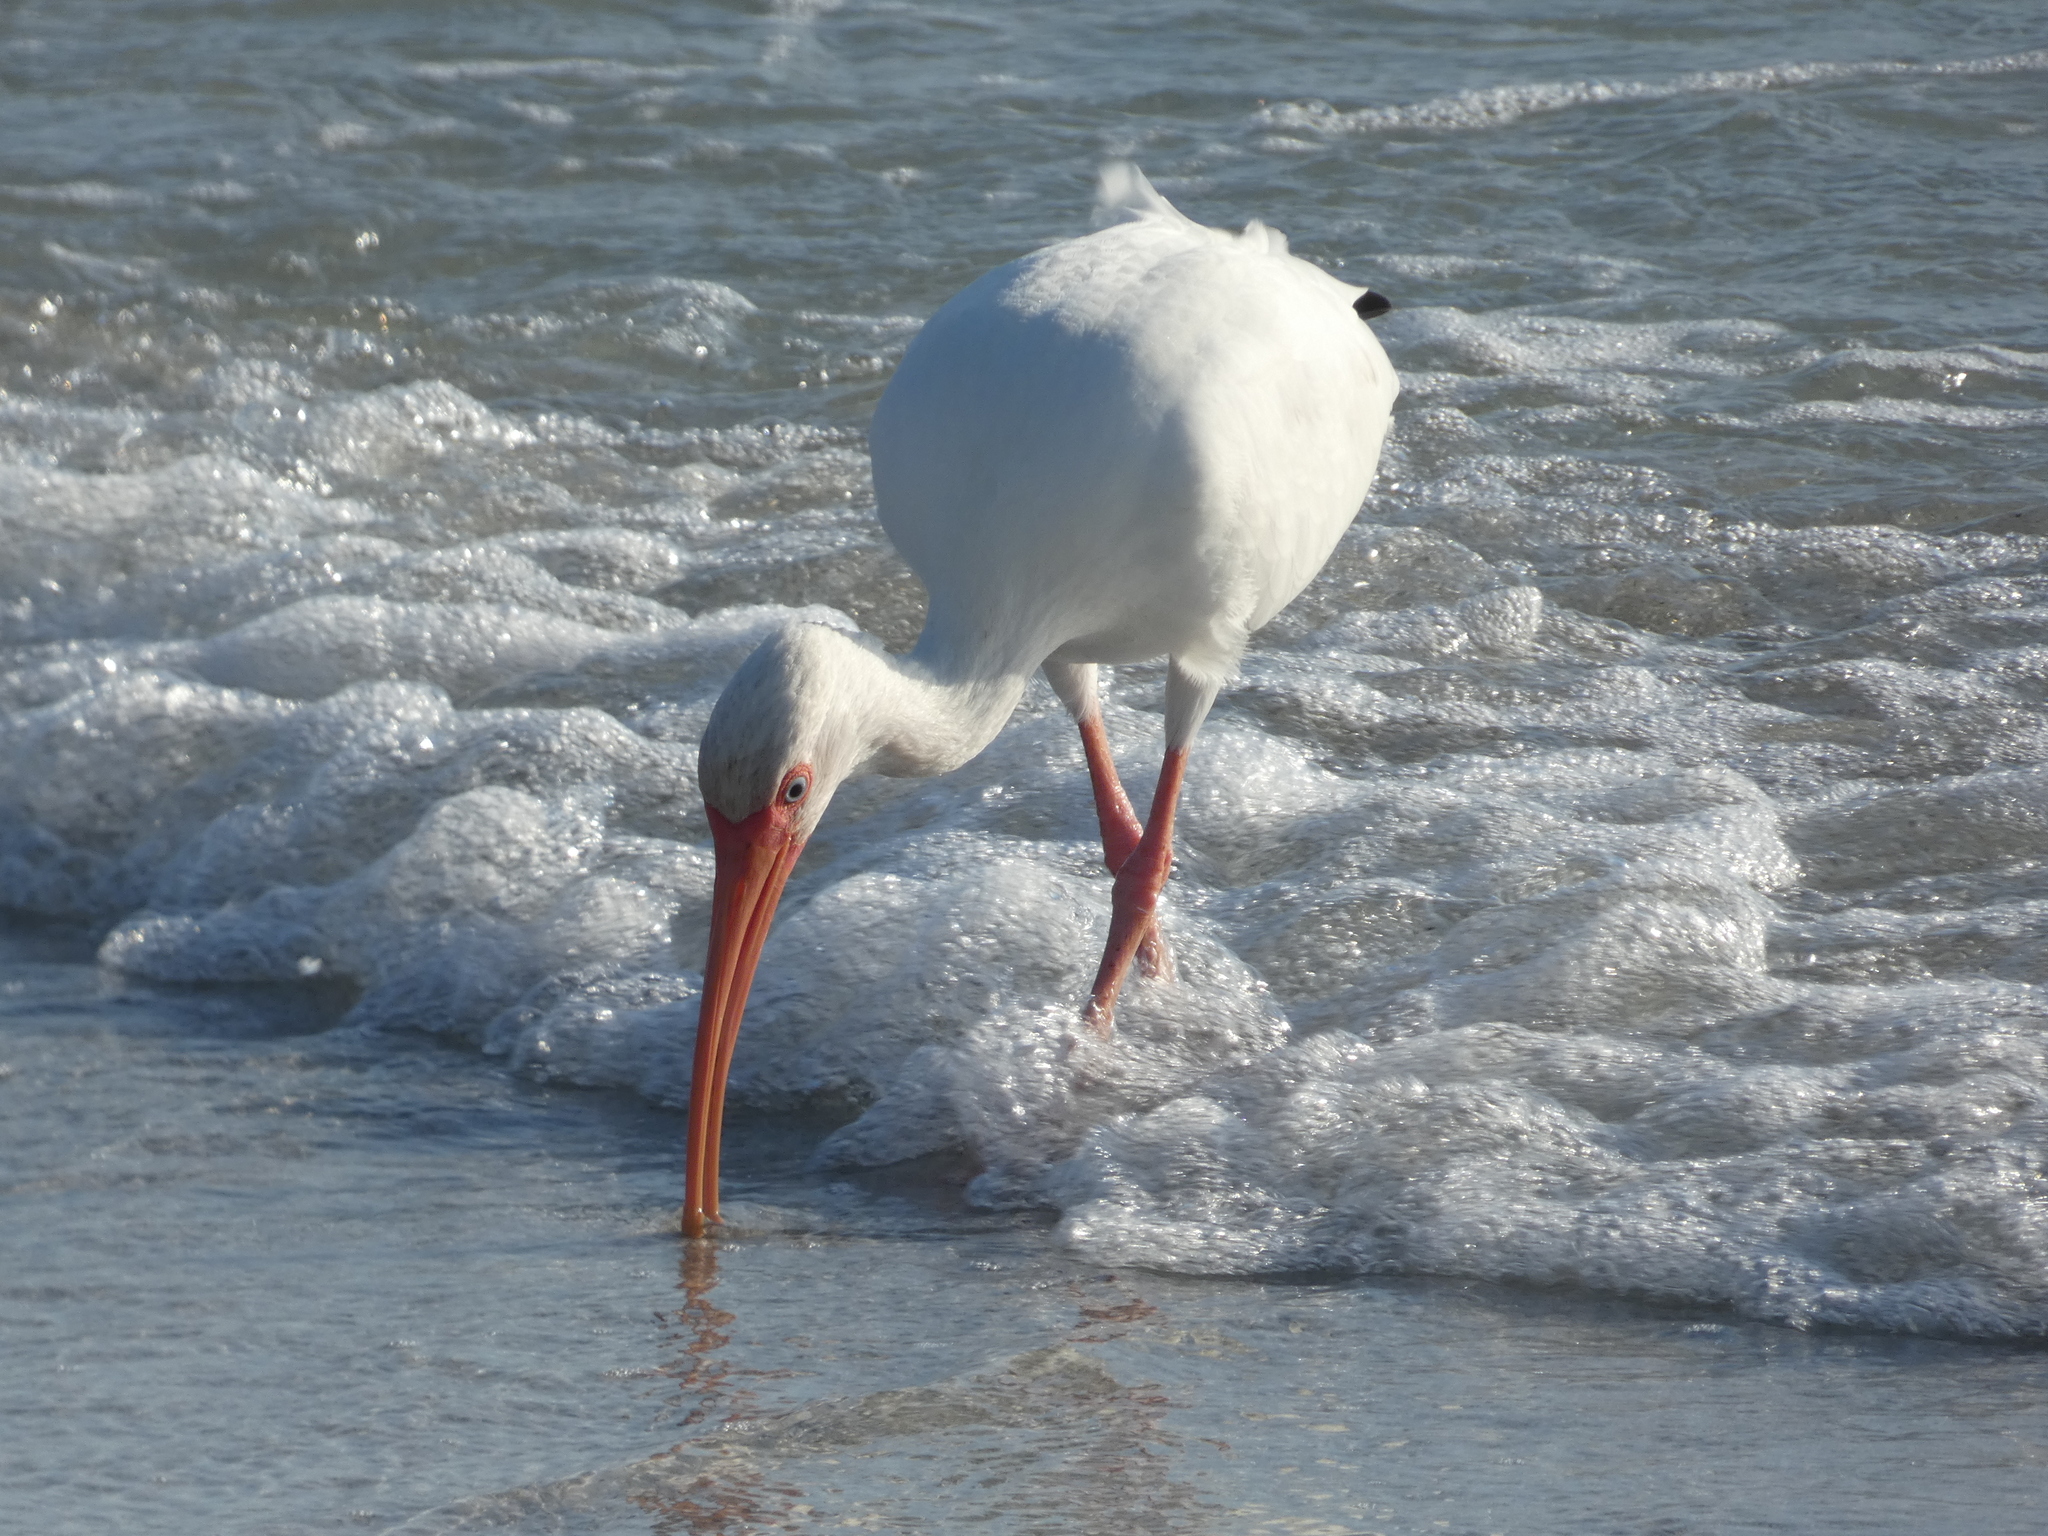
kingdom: Animalia
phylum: Chordata
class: Aves
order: Pelecaniformes
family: Threskiornithidae
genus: Eudocimus
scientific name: Eudocimus albus
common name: White ibis
